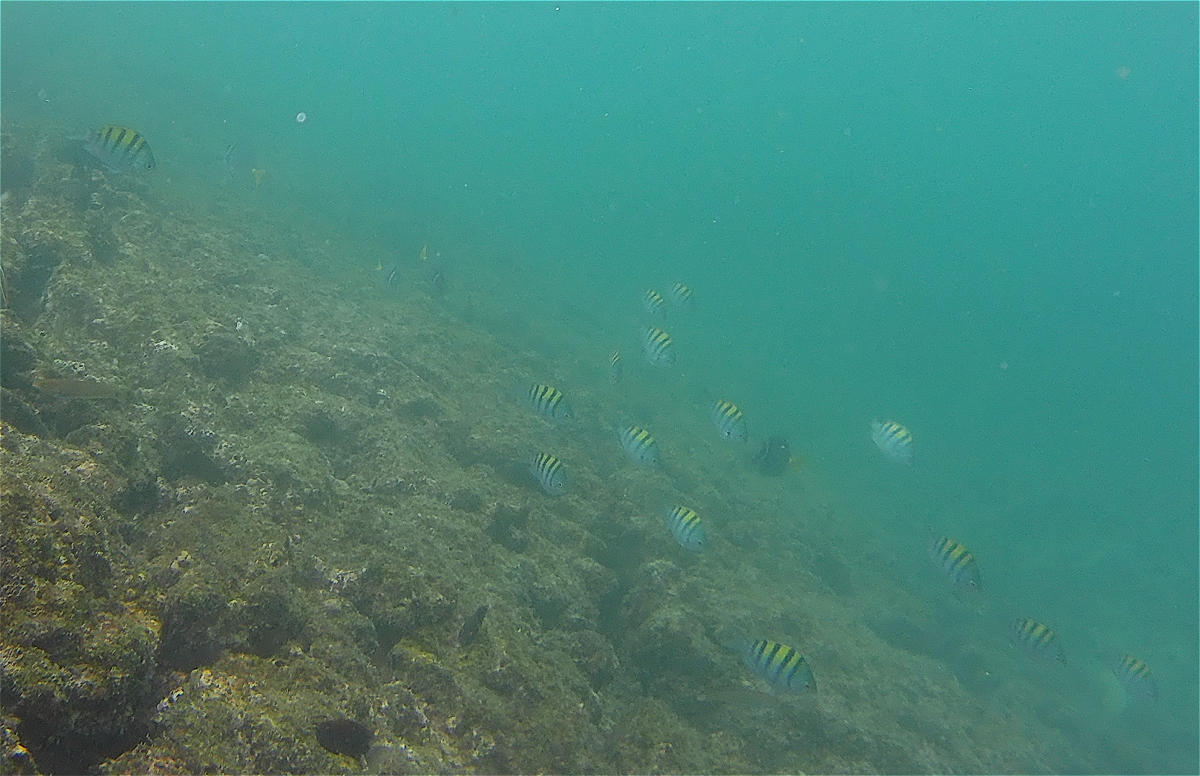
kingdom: Animalia
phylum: Chordata
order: Perciformes
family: Pomacentridae
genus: Abudefduf
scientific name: Abudefduf troschelii
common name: Panamic sergeant major
